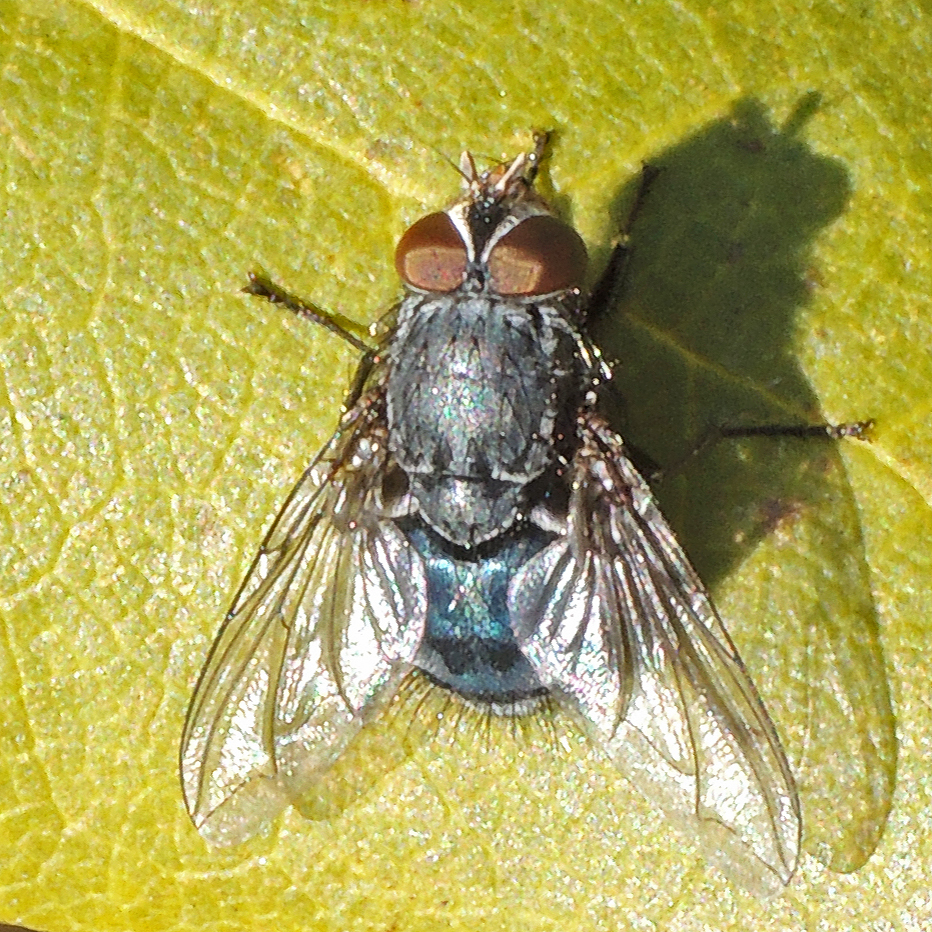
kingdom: Animalia
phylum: Arthropoda
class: Insecta
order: Diptera
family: Calliphoridae
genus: Calliphora
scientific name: Calliphora vicina
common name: Common blow flie
